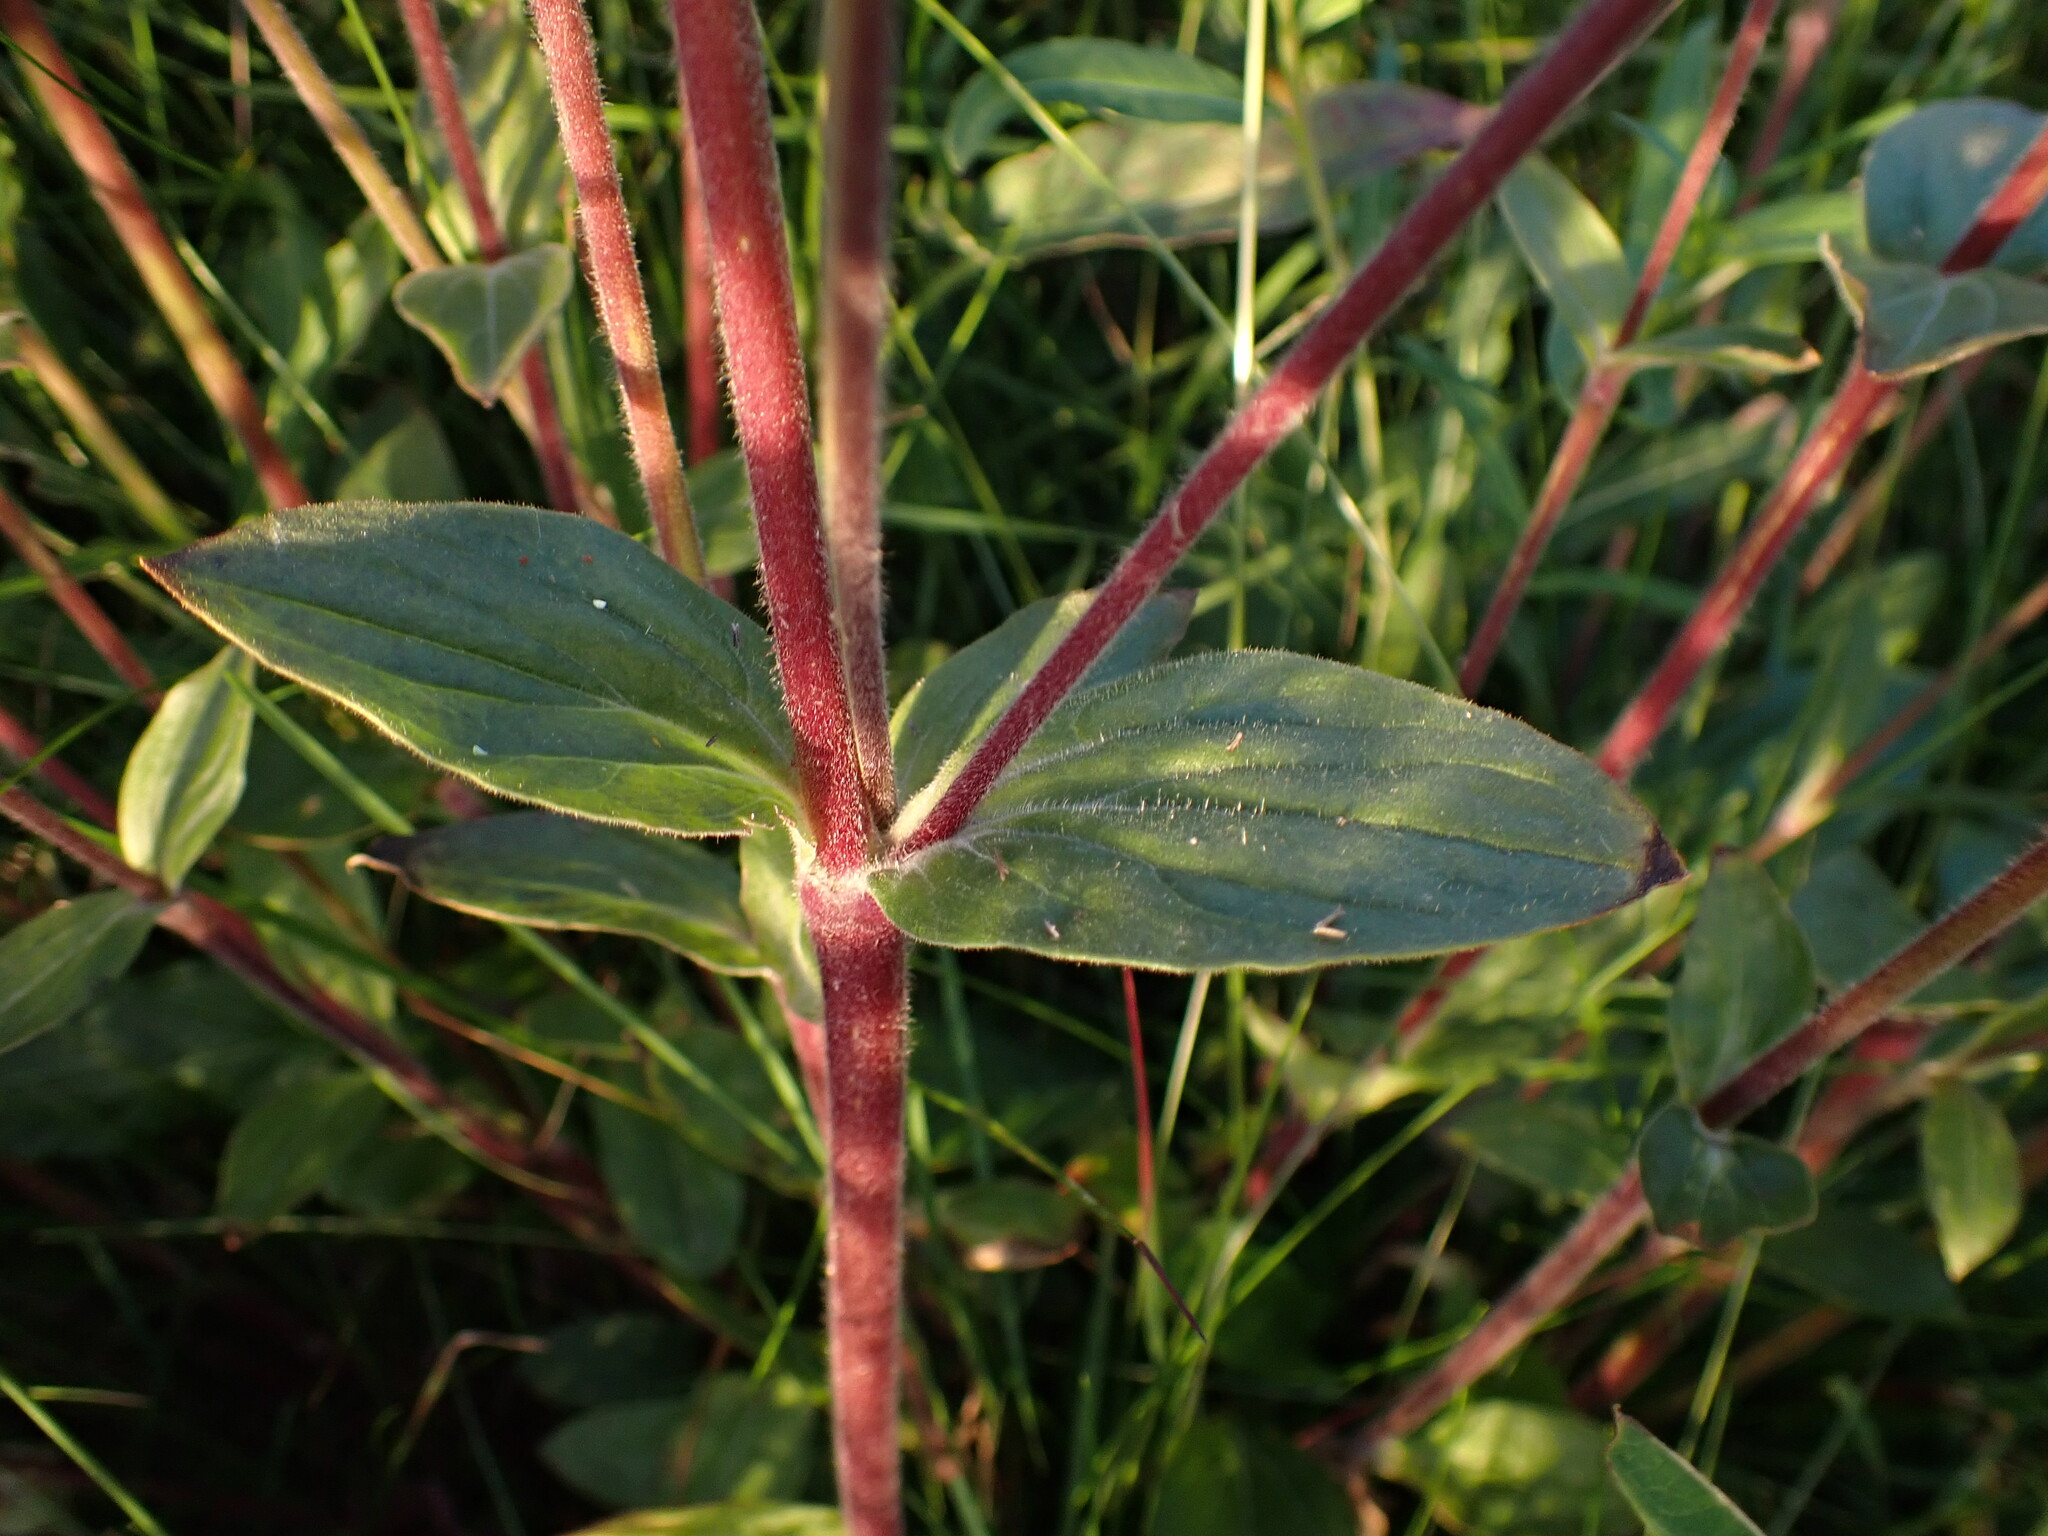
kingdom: Plantae
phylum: Tracheophyta
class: Magnoliopsida
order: Caryophyllales
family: Caryophyllaceae
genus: Silene
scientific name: Silene dioica
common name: Red campion
